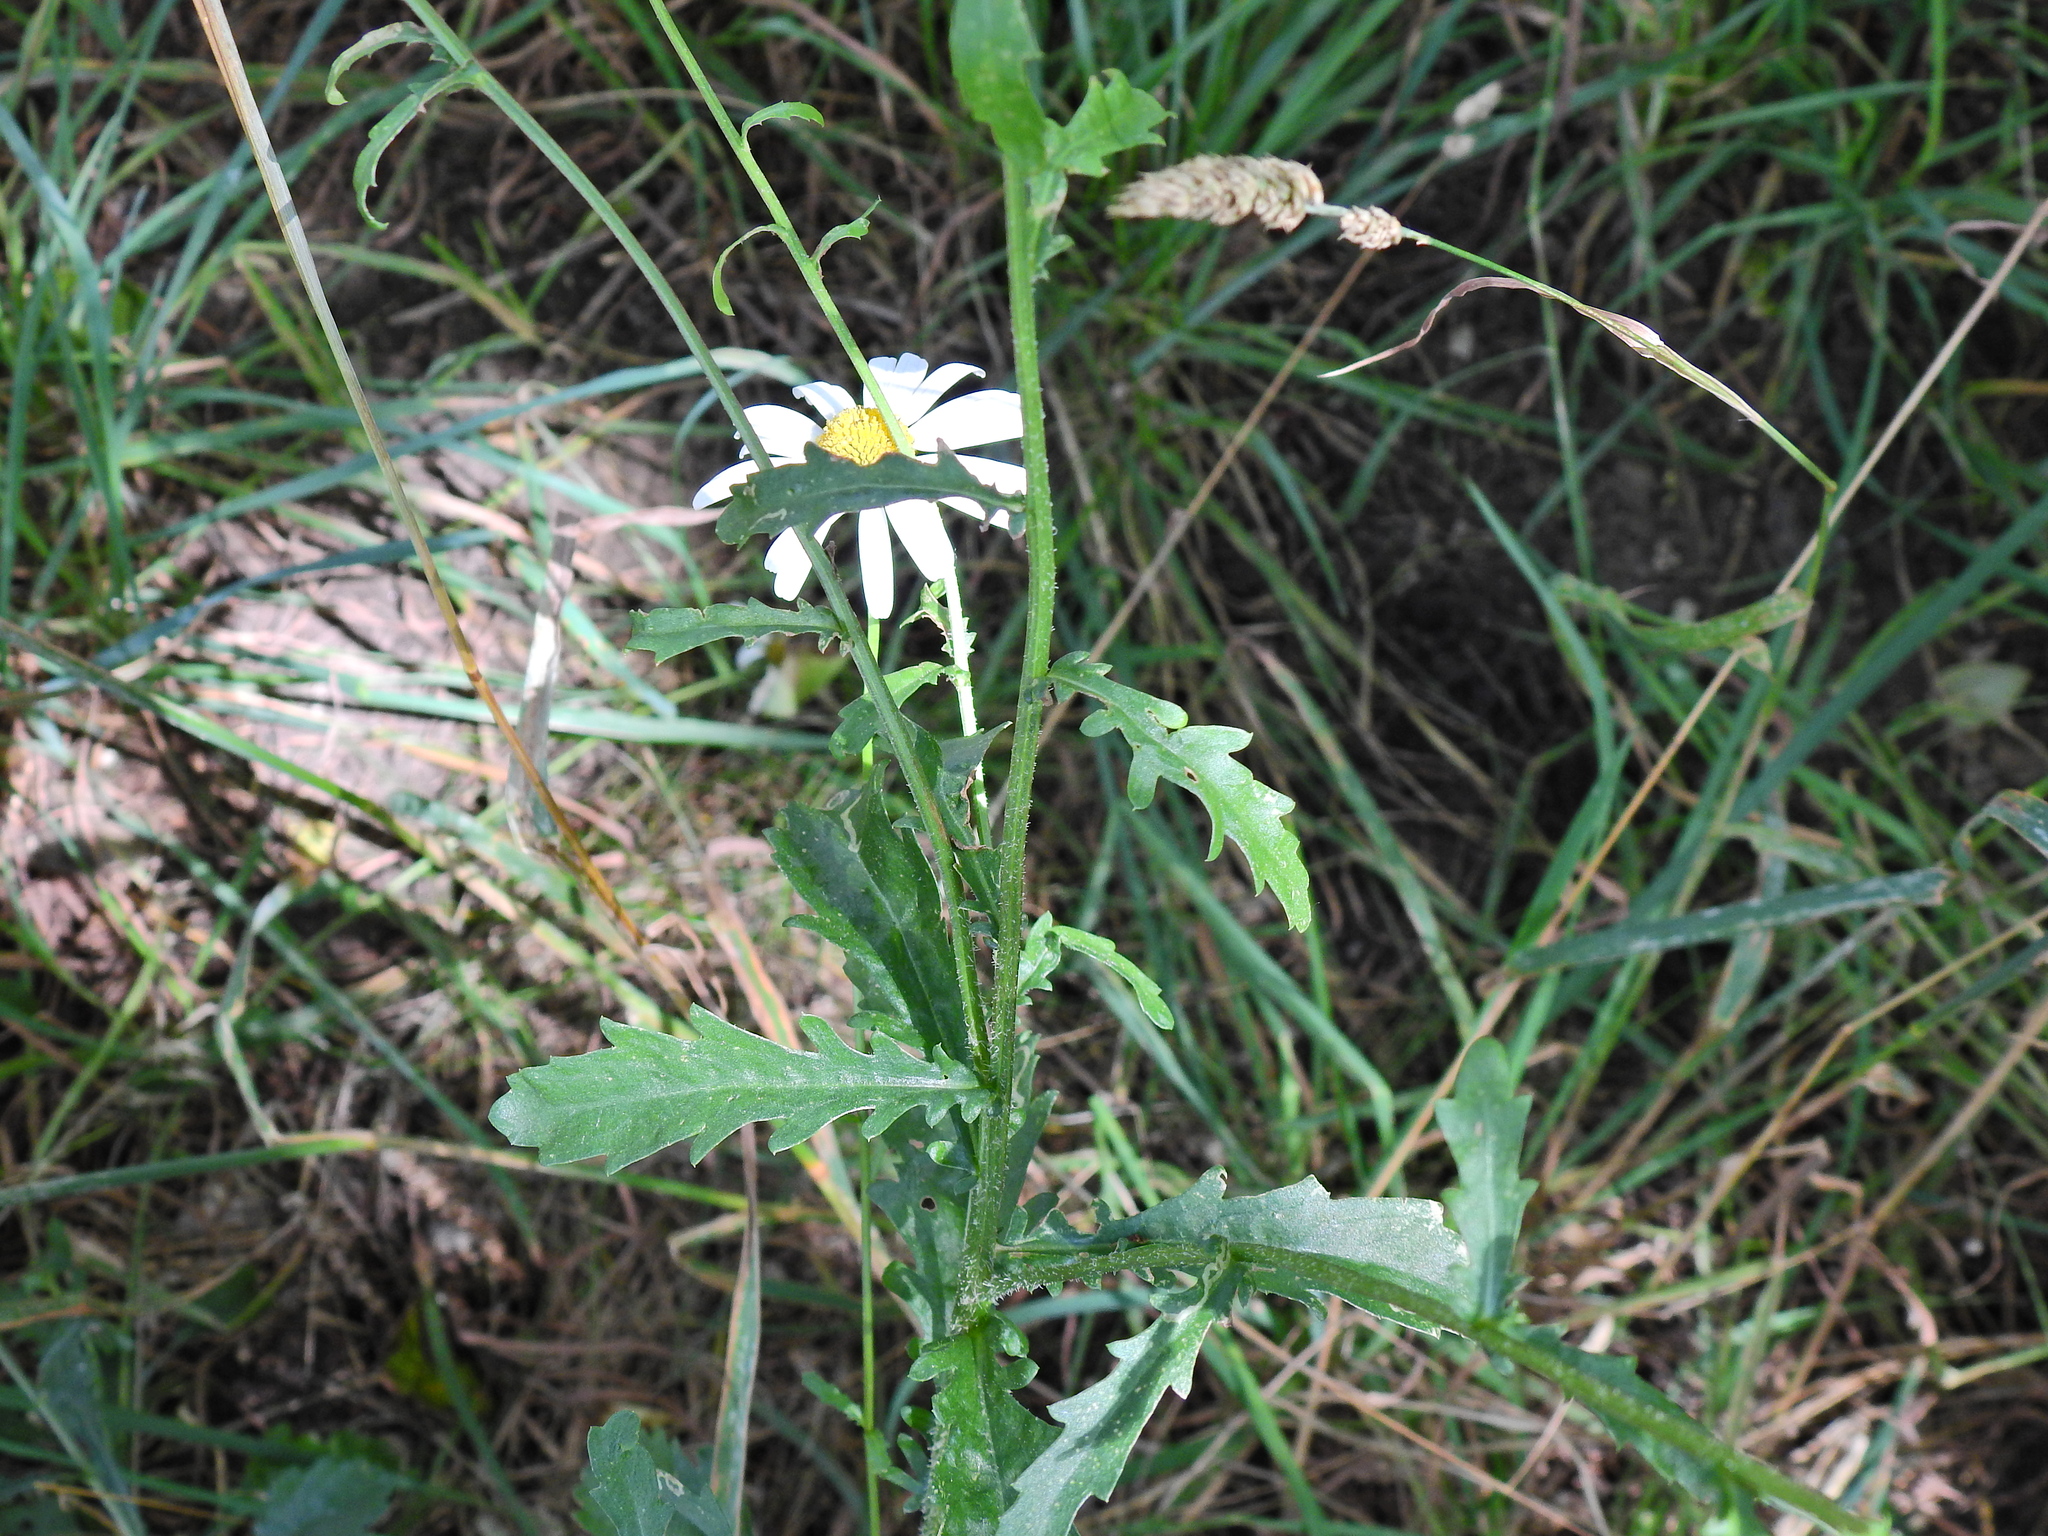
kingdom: Plantae
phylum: Tracheophyta
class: Magnoliopsida
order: Asterales
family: Asteraceae
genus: Leucanthemum
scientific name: Leucanthemum vulgare
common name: Oxeye daisy
